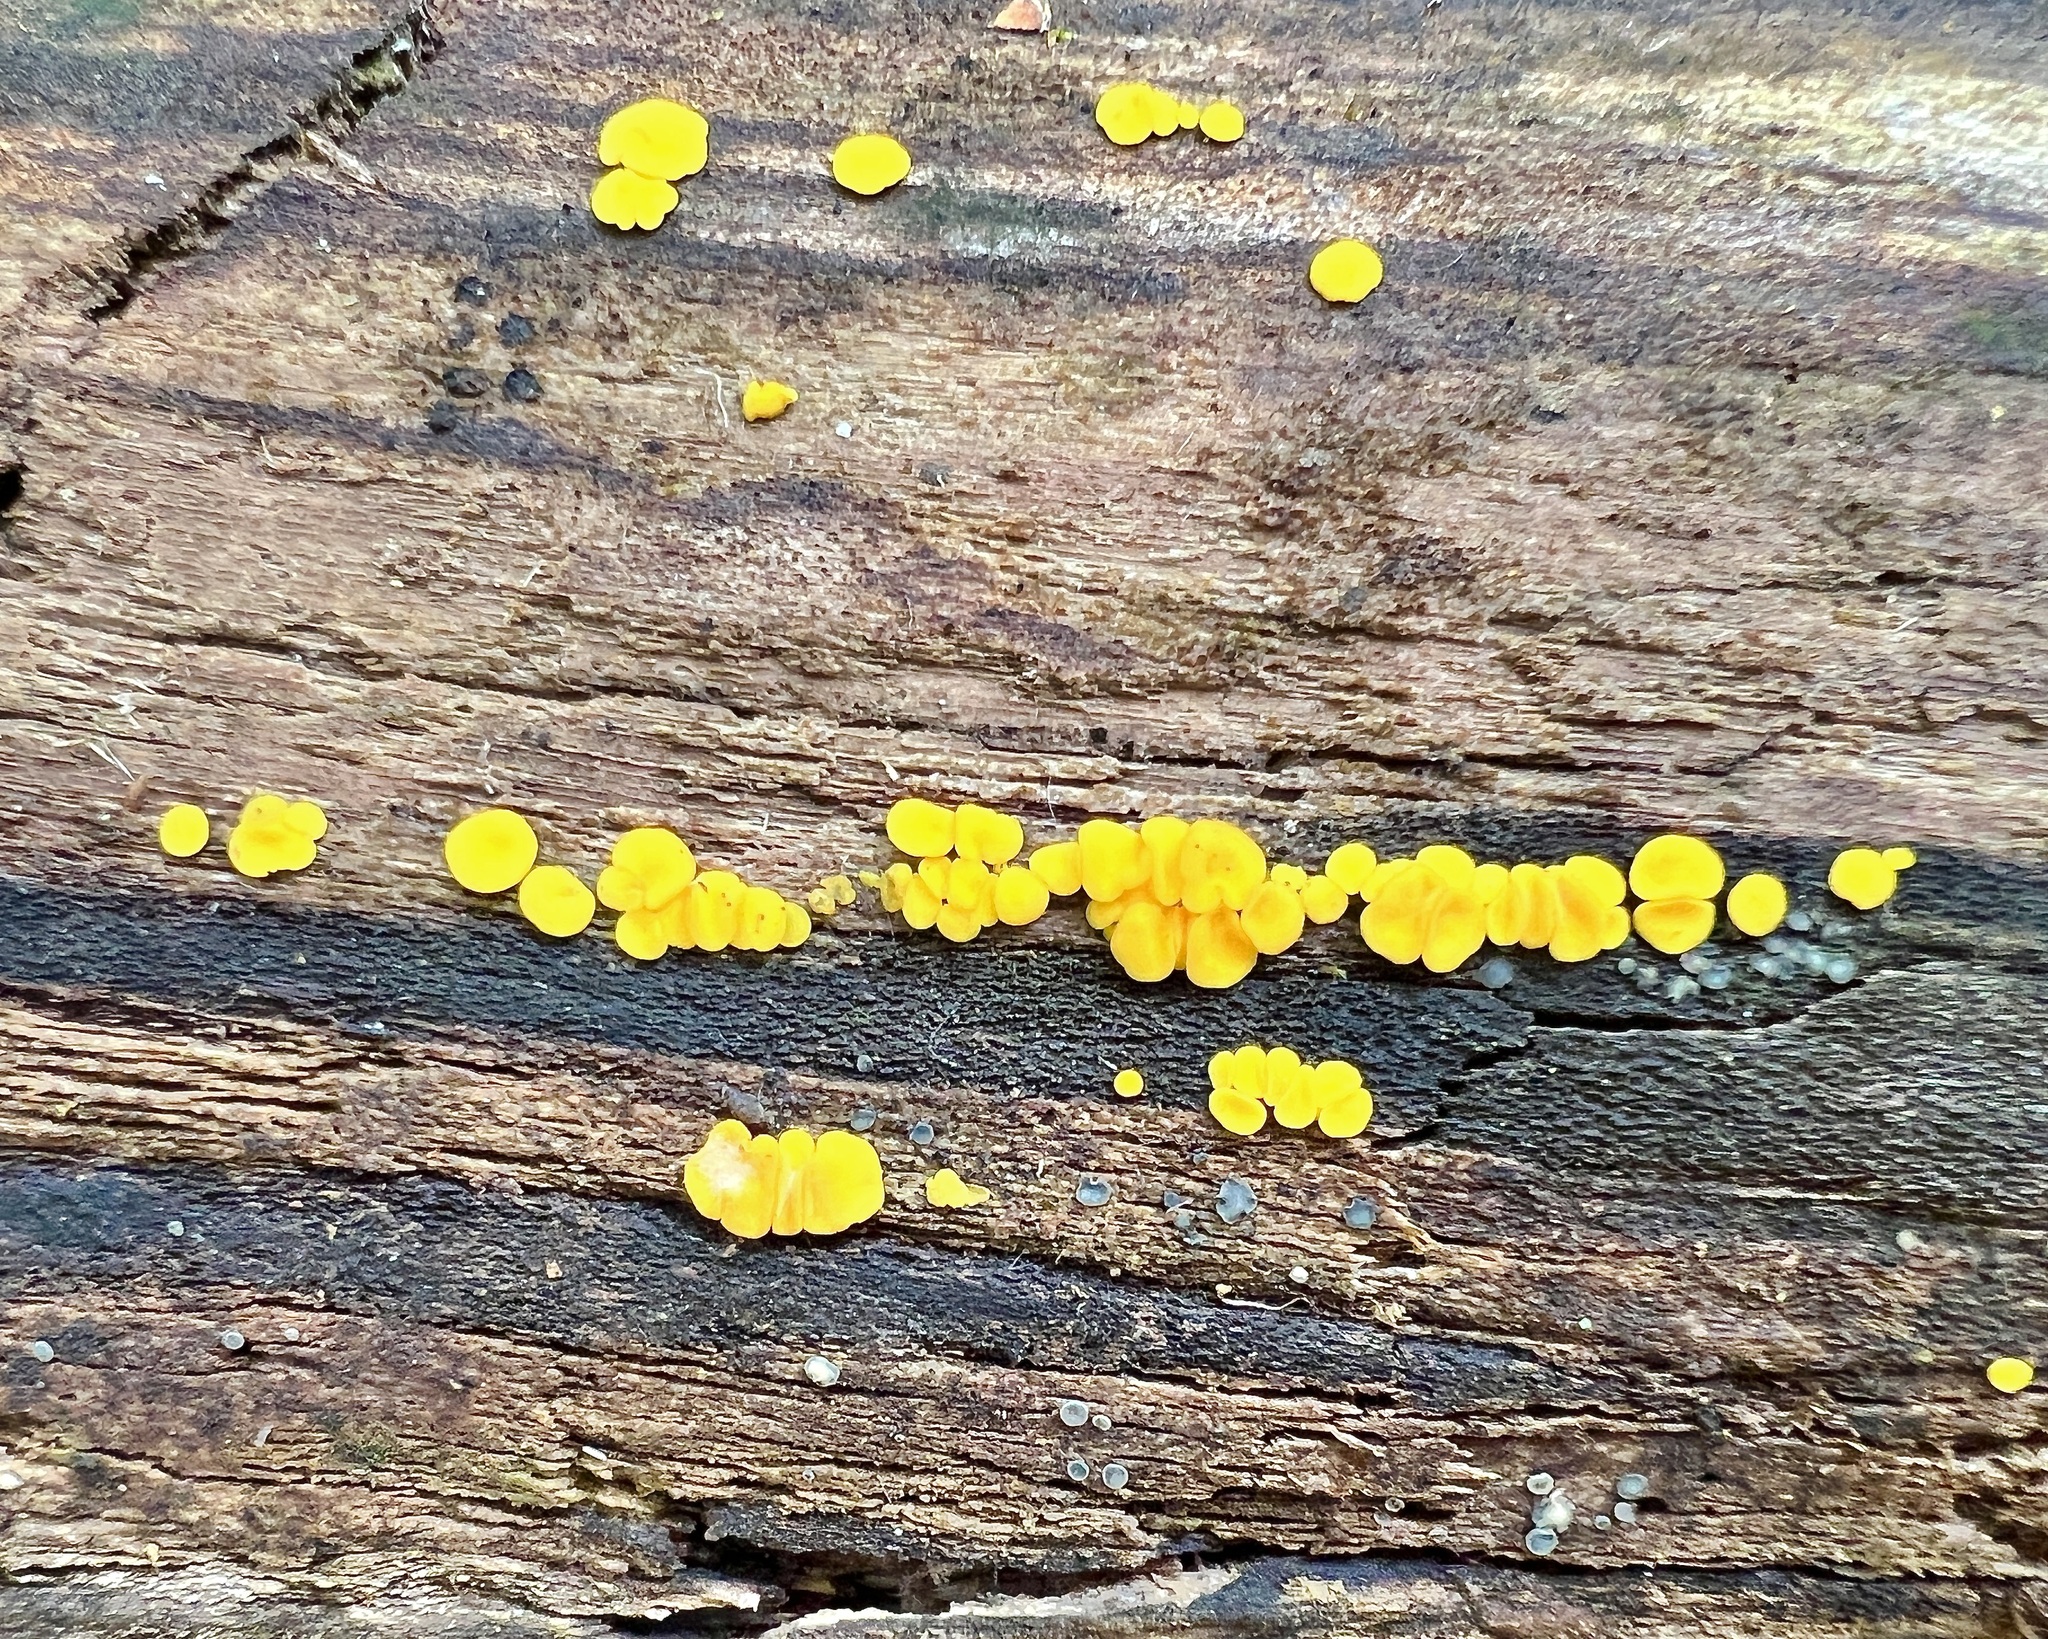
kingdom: Fungi
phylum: Ascomycota
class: Leotiomycetes
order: Helotiales
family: Pezizellaceae
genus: Calycina
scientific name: Calycina citrina
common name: Yellow fairy cups
